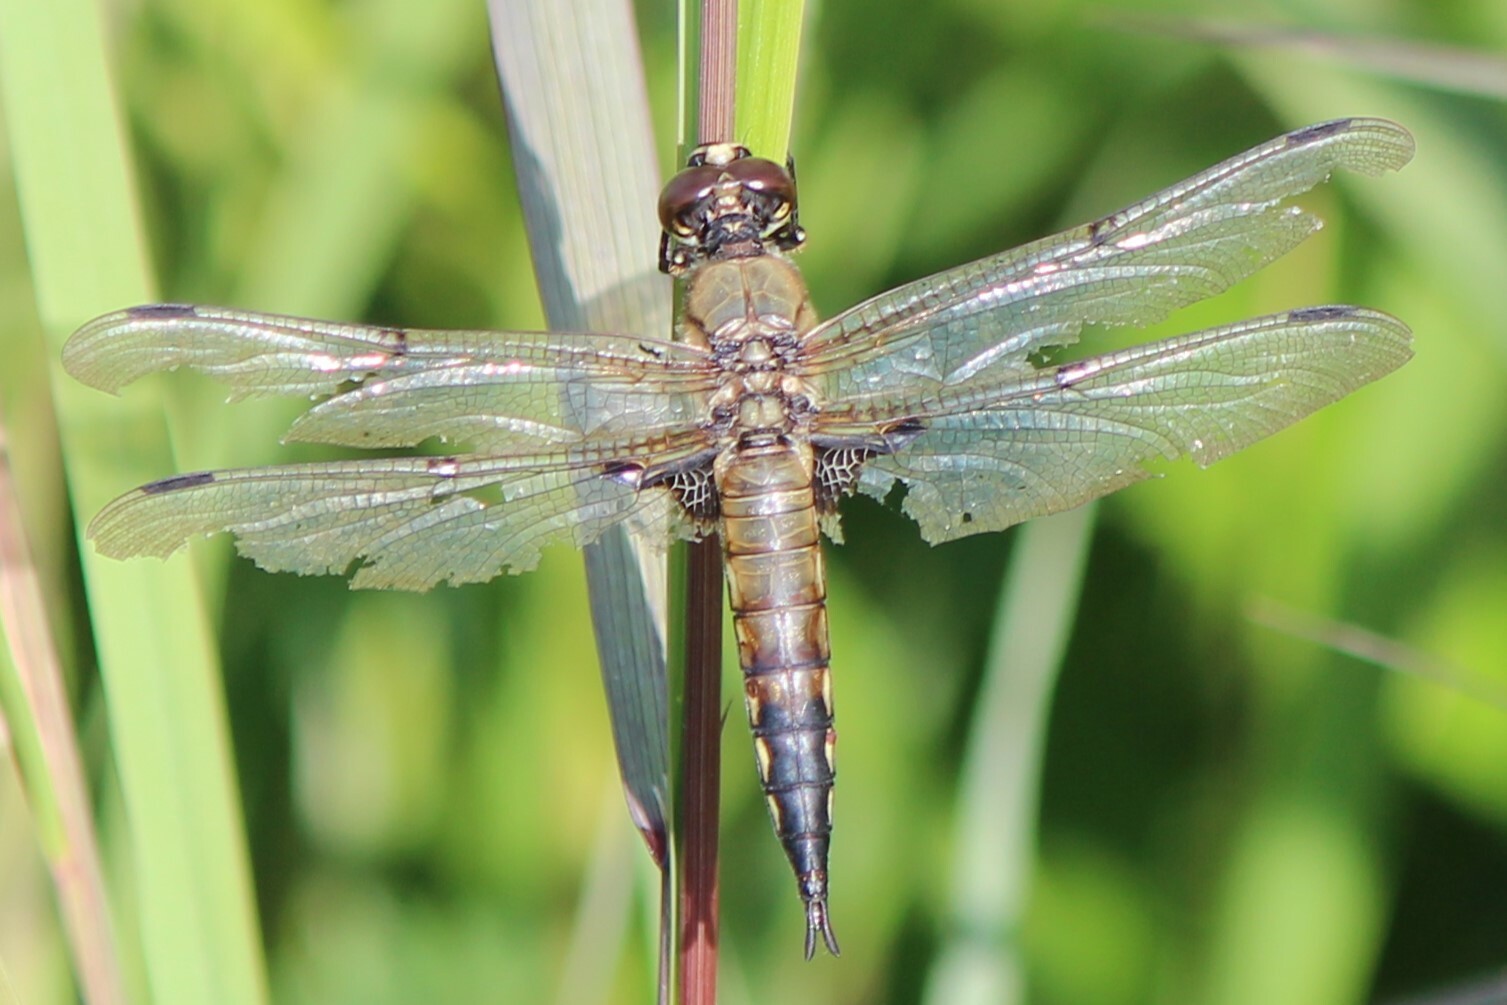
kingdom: Animalia
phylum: Arthropoda
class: Insecta
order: Odonata
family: Libellulidae
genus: Libellula
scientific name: Libellula quadrimaculata
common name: Four-spotted chaser
